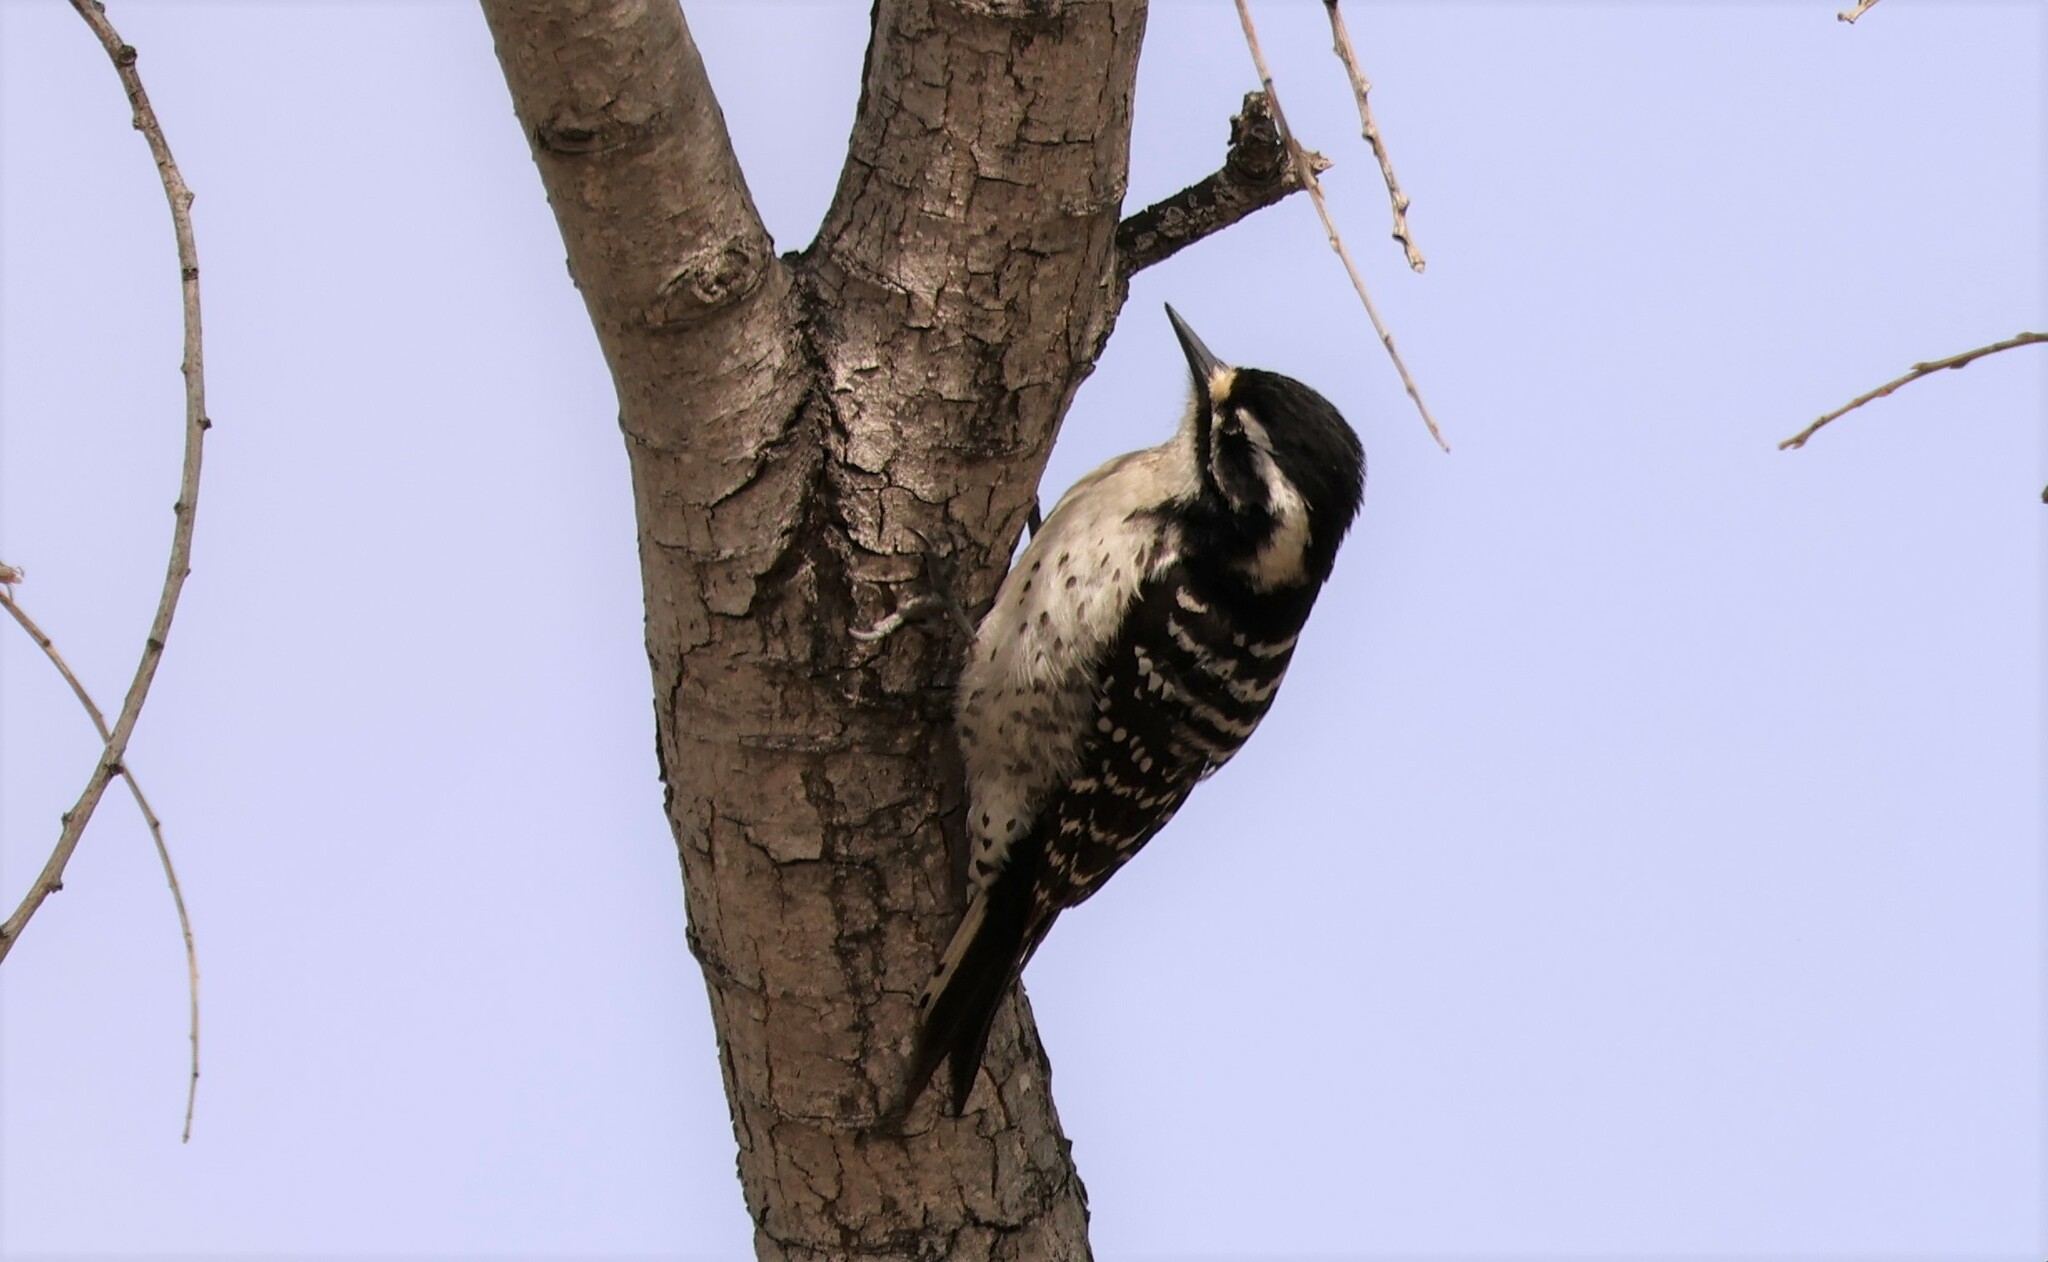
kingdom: Animalia
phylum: Chordata
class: Aves
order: Piciformes
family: Picidae
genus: Dryobates
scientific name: Dryobates nuttallii
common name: Nuttall's woodpecker
